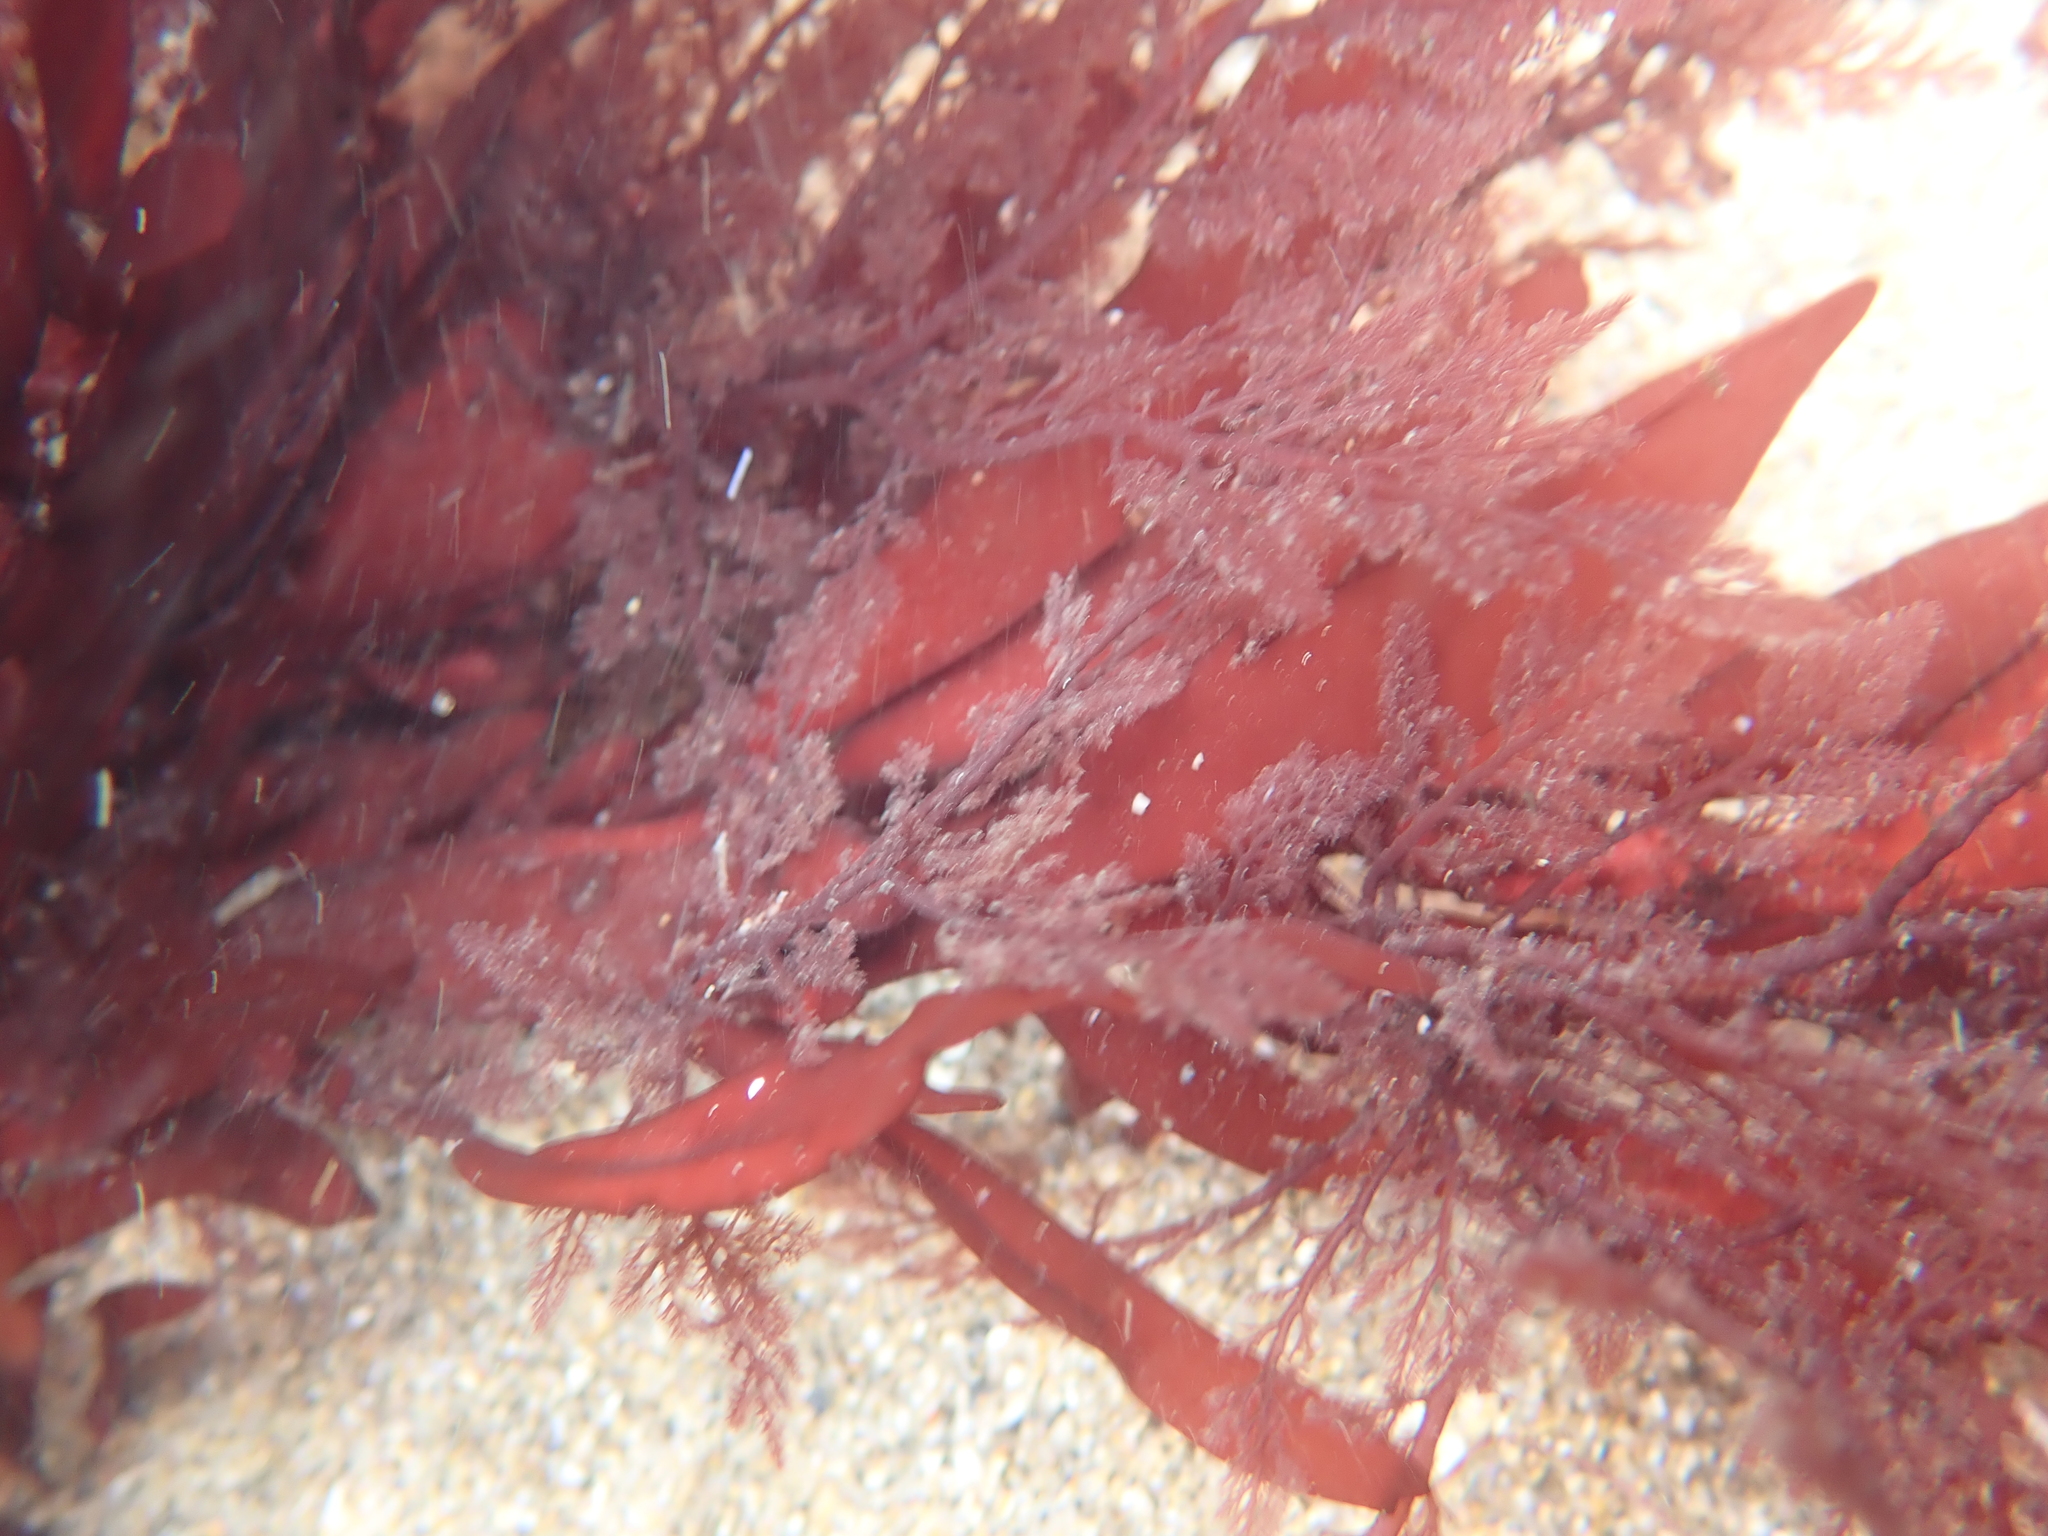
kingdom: Plantae
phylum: Rhodophyta
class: Florideophyceae
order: Ceramiales
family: Ceramiaceae
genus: Microcladia
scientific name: Microcladia coulteri
